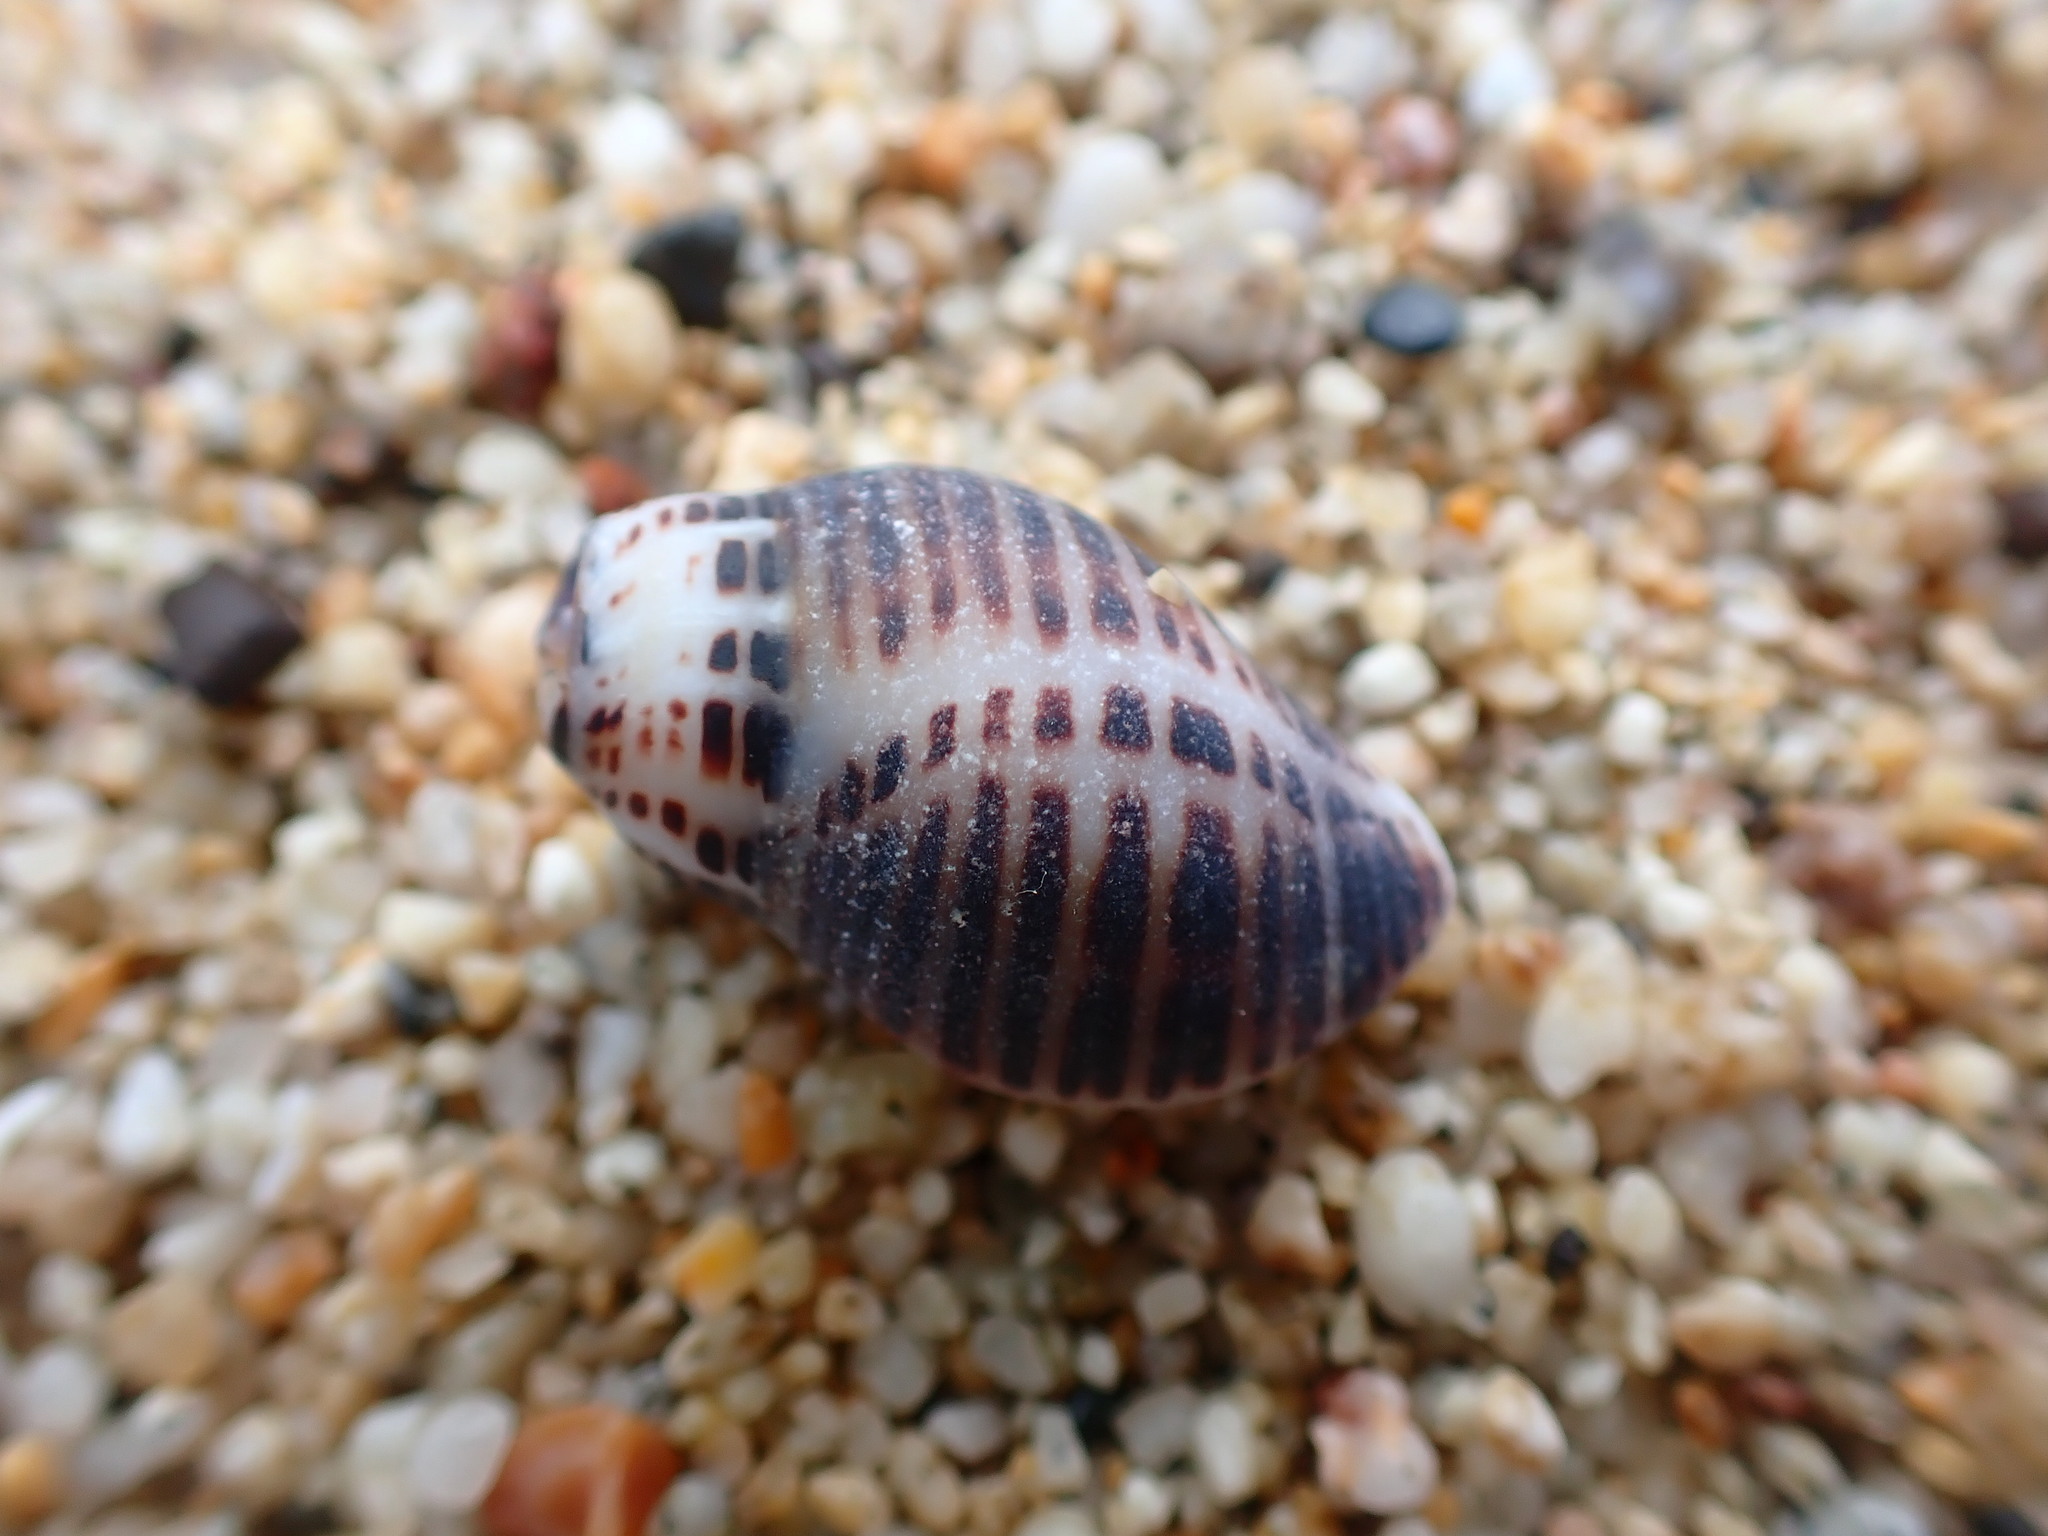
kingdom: Animalia
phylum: Mollusca
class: Gastropoda
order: Neogastropoda
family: Muricidae
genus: Acanthinucella
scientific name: Acanthinucella spirata
